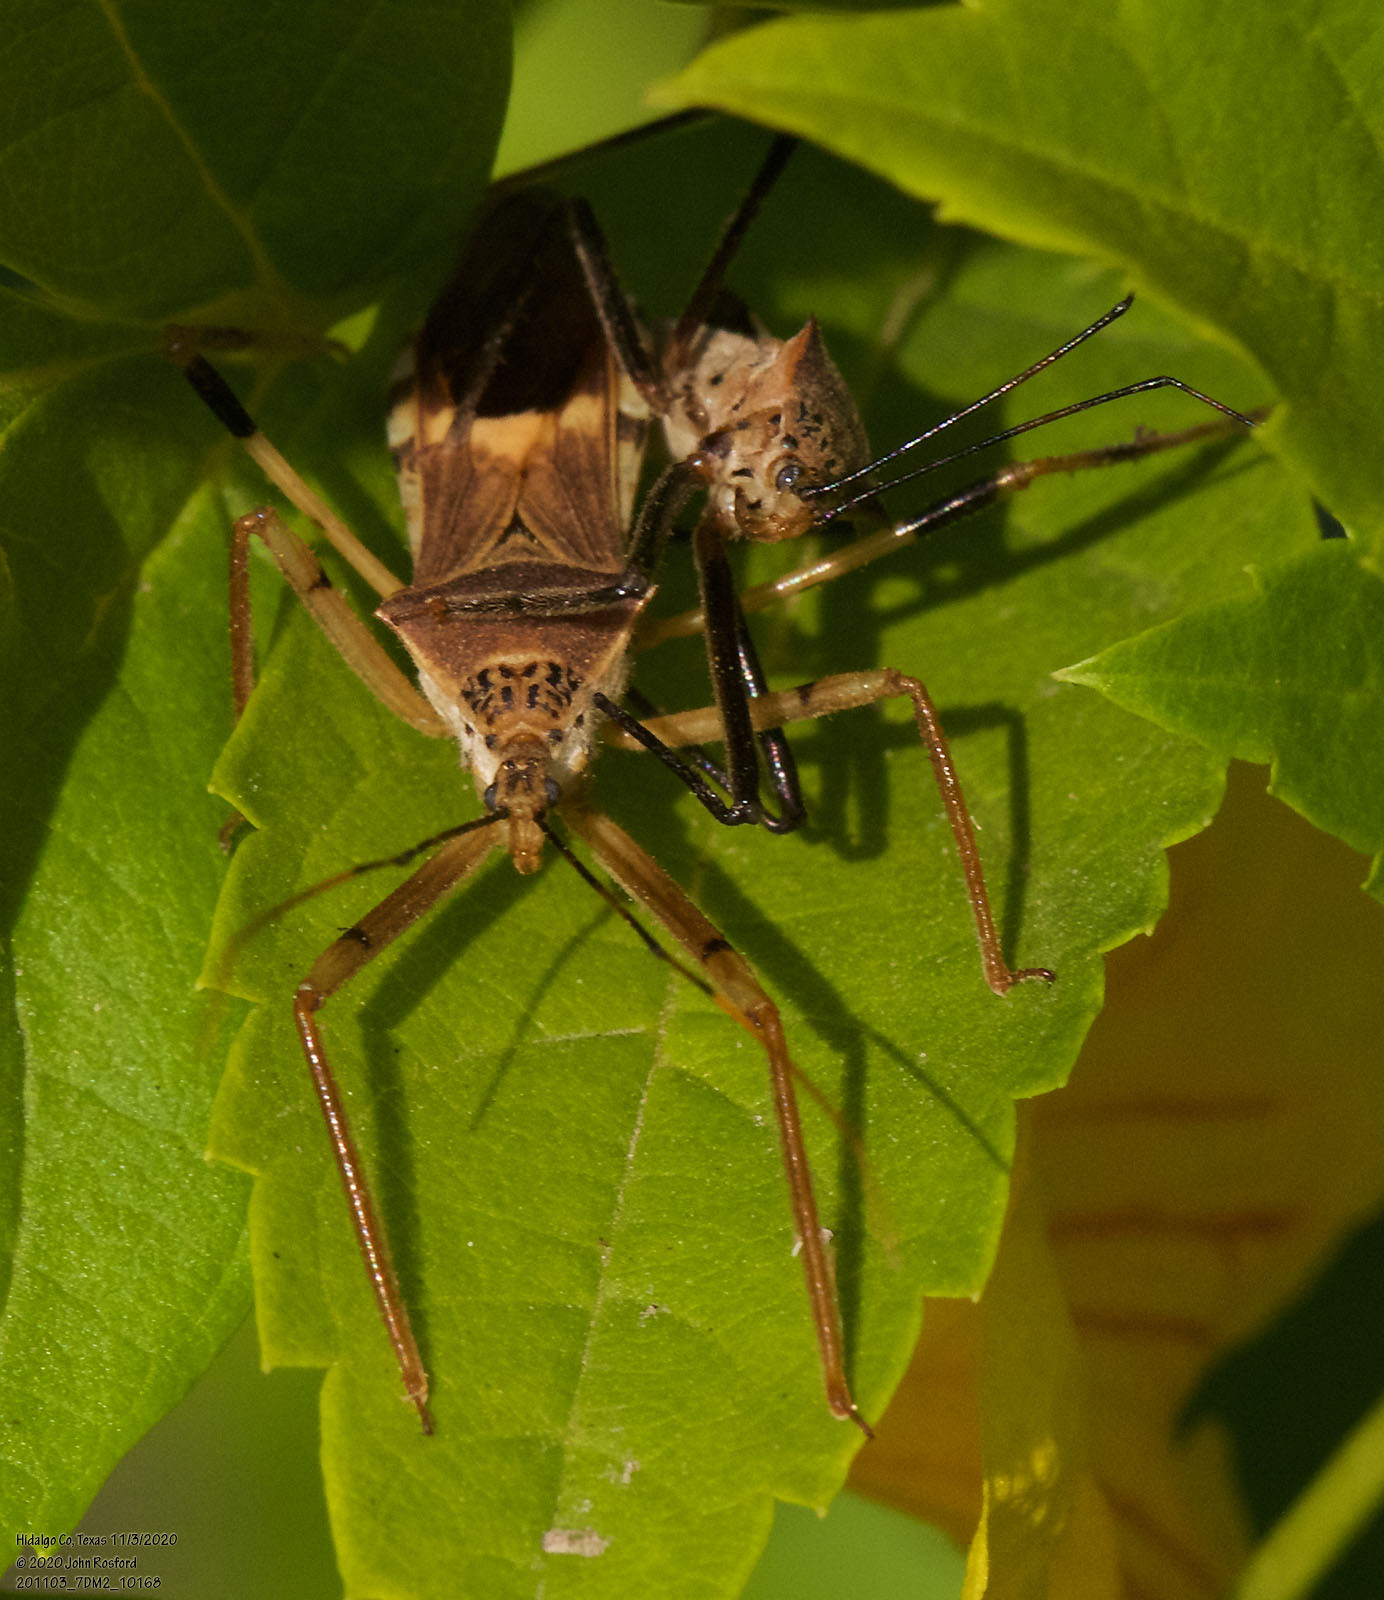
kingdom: Animalia
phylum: Arthropoda
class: Insecta
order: Hemiptera
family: Reduviidae
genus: Zelus
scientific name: Zelus janus
